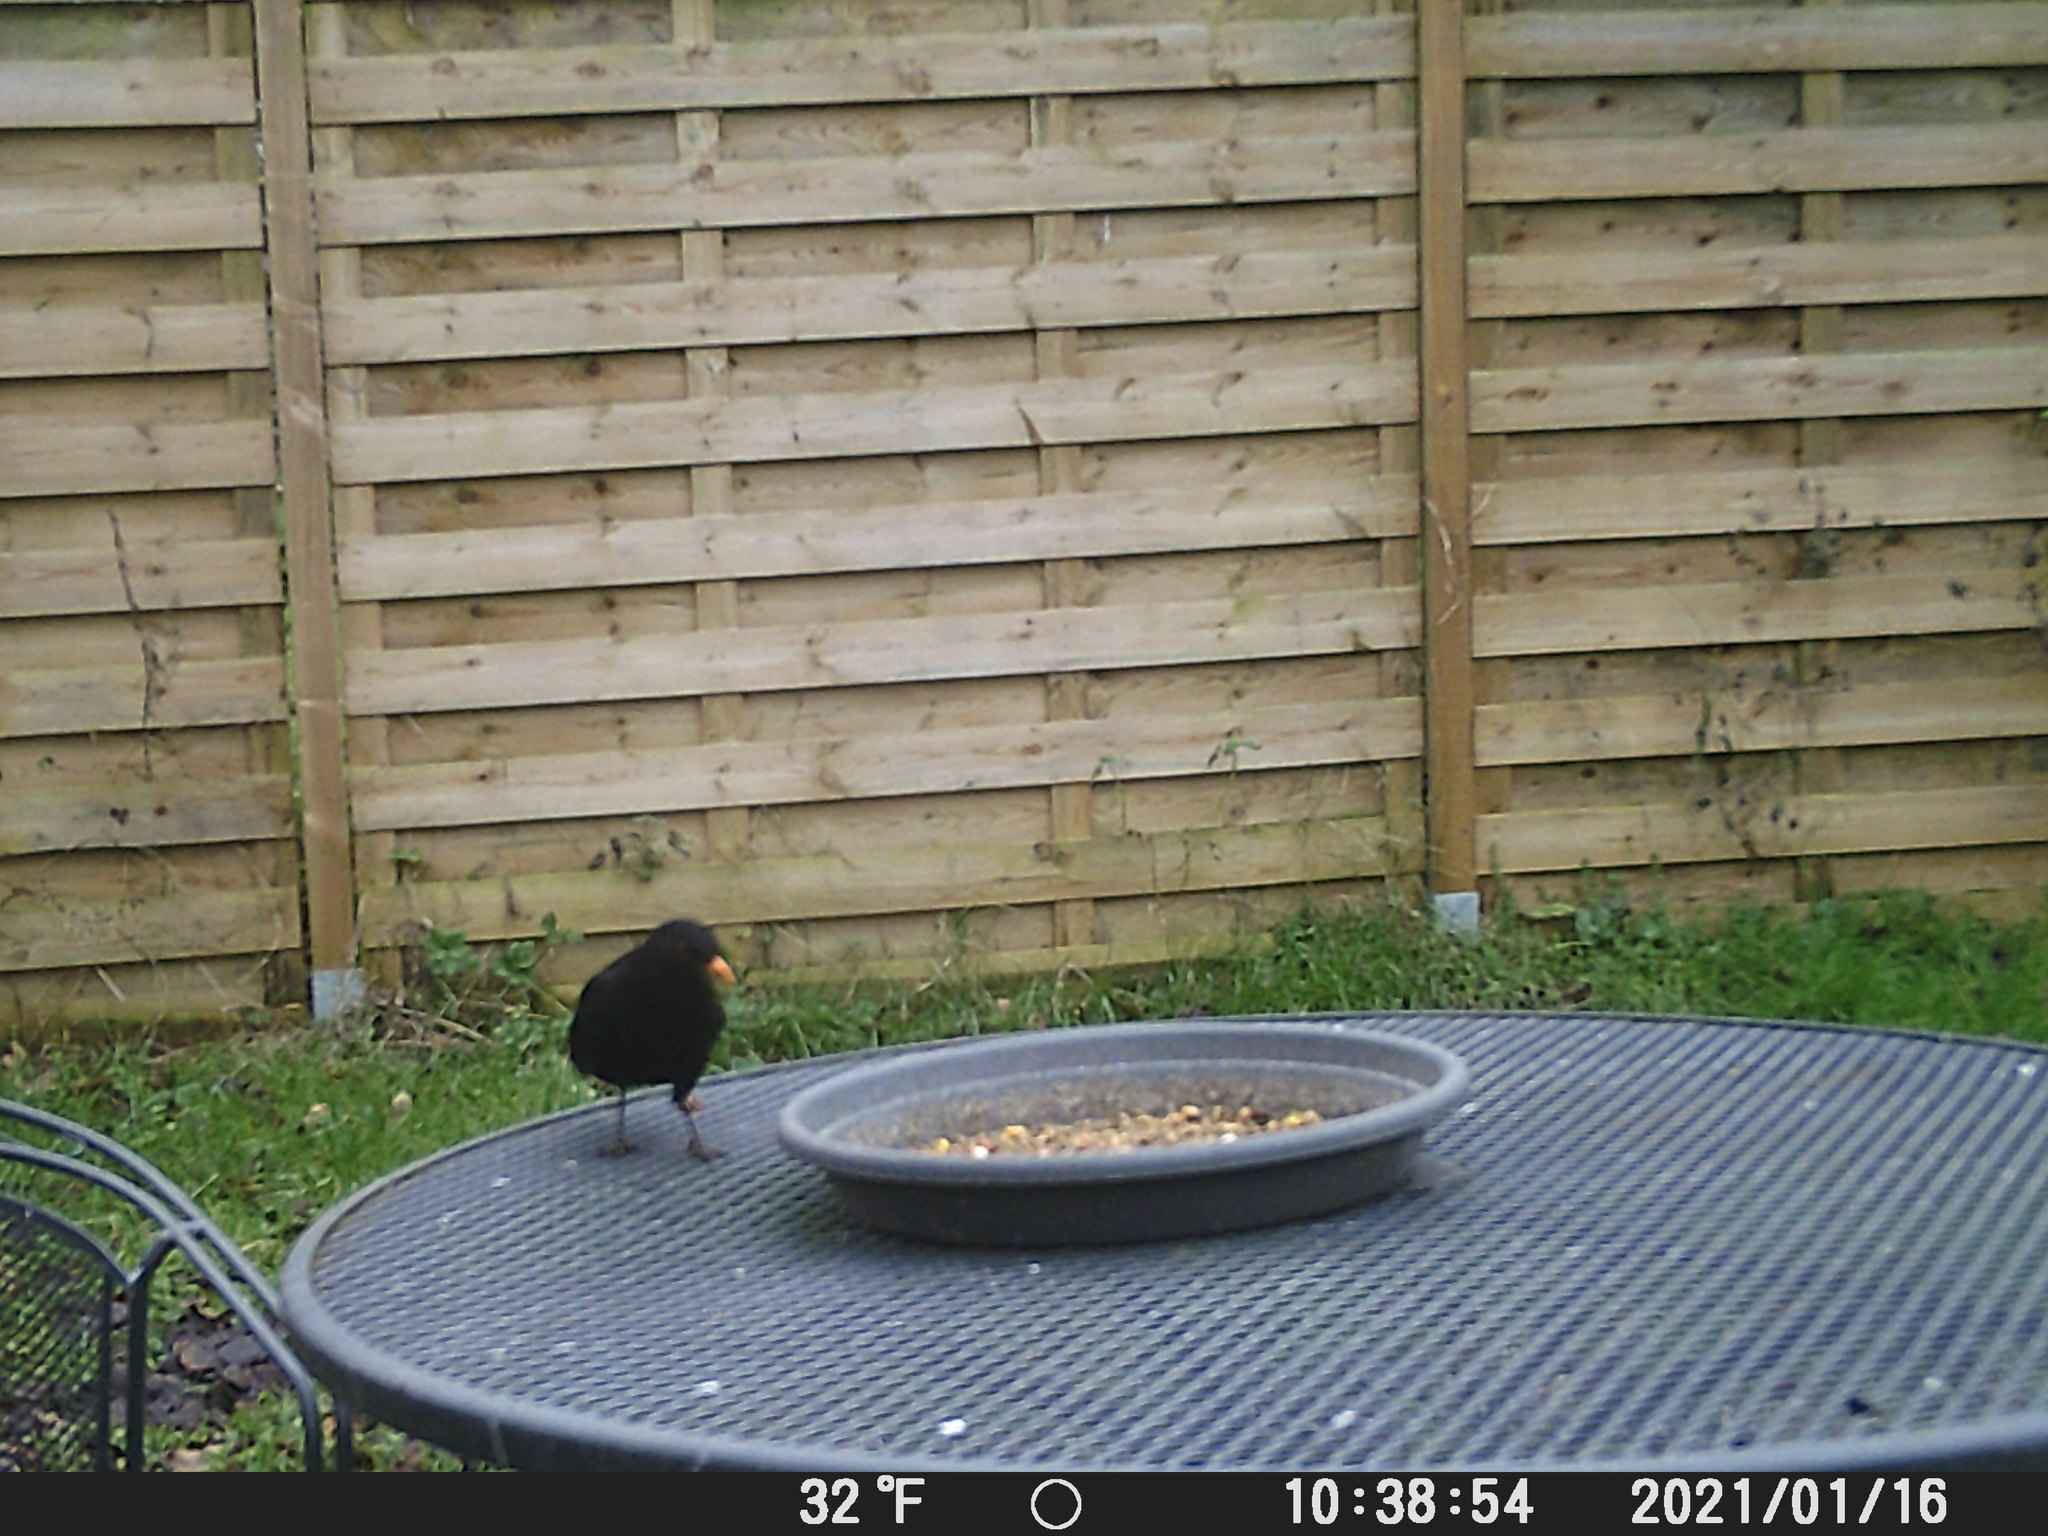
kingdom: Animalia
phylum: Chordata
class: Aves
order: Passeriformes
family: Turdidae
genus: Turdus
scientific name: Turdus merula
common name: Common blackbird
